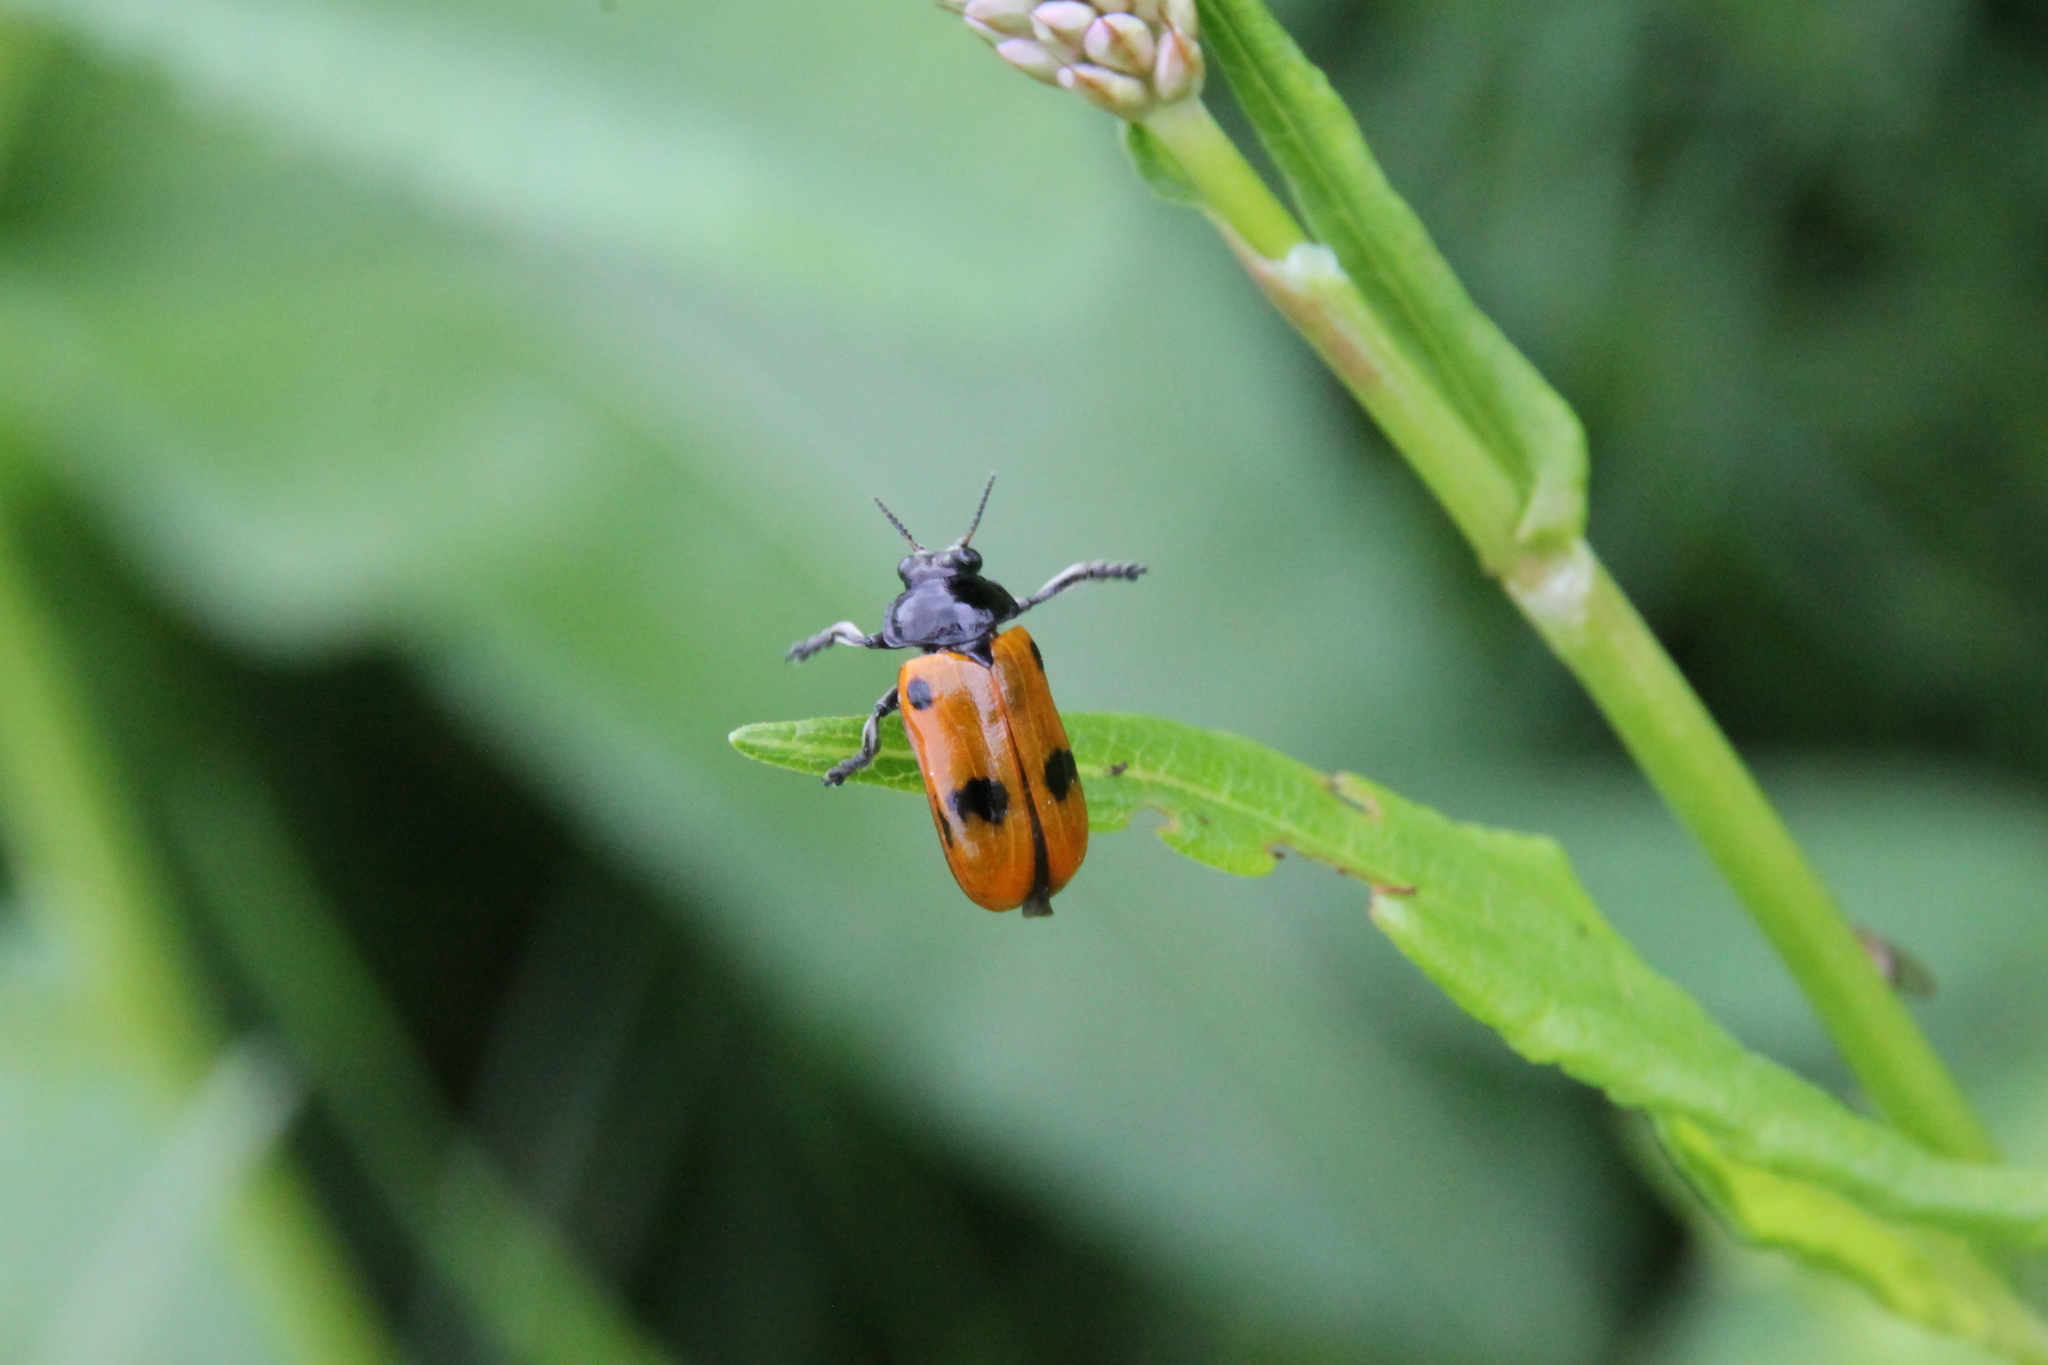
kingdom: Animalia
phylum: Arthropoda
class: Insecta
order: Coleoptera
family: Chrysomelidae
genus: Clytra
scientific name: Clytra quadripunctata
